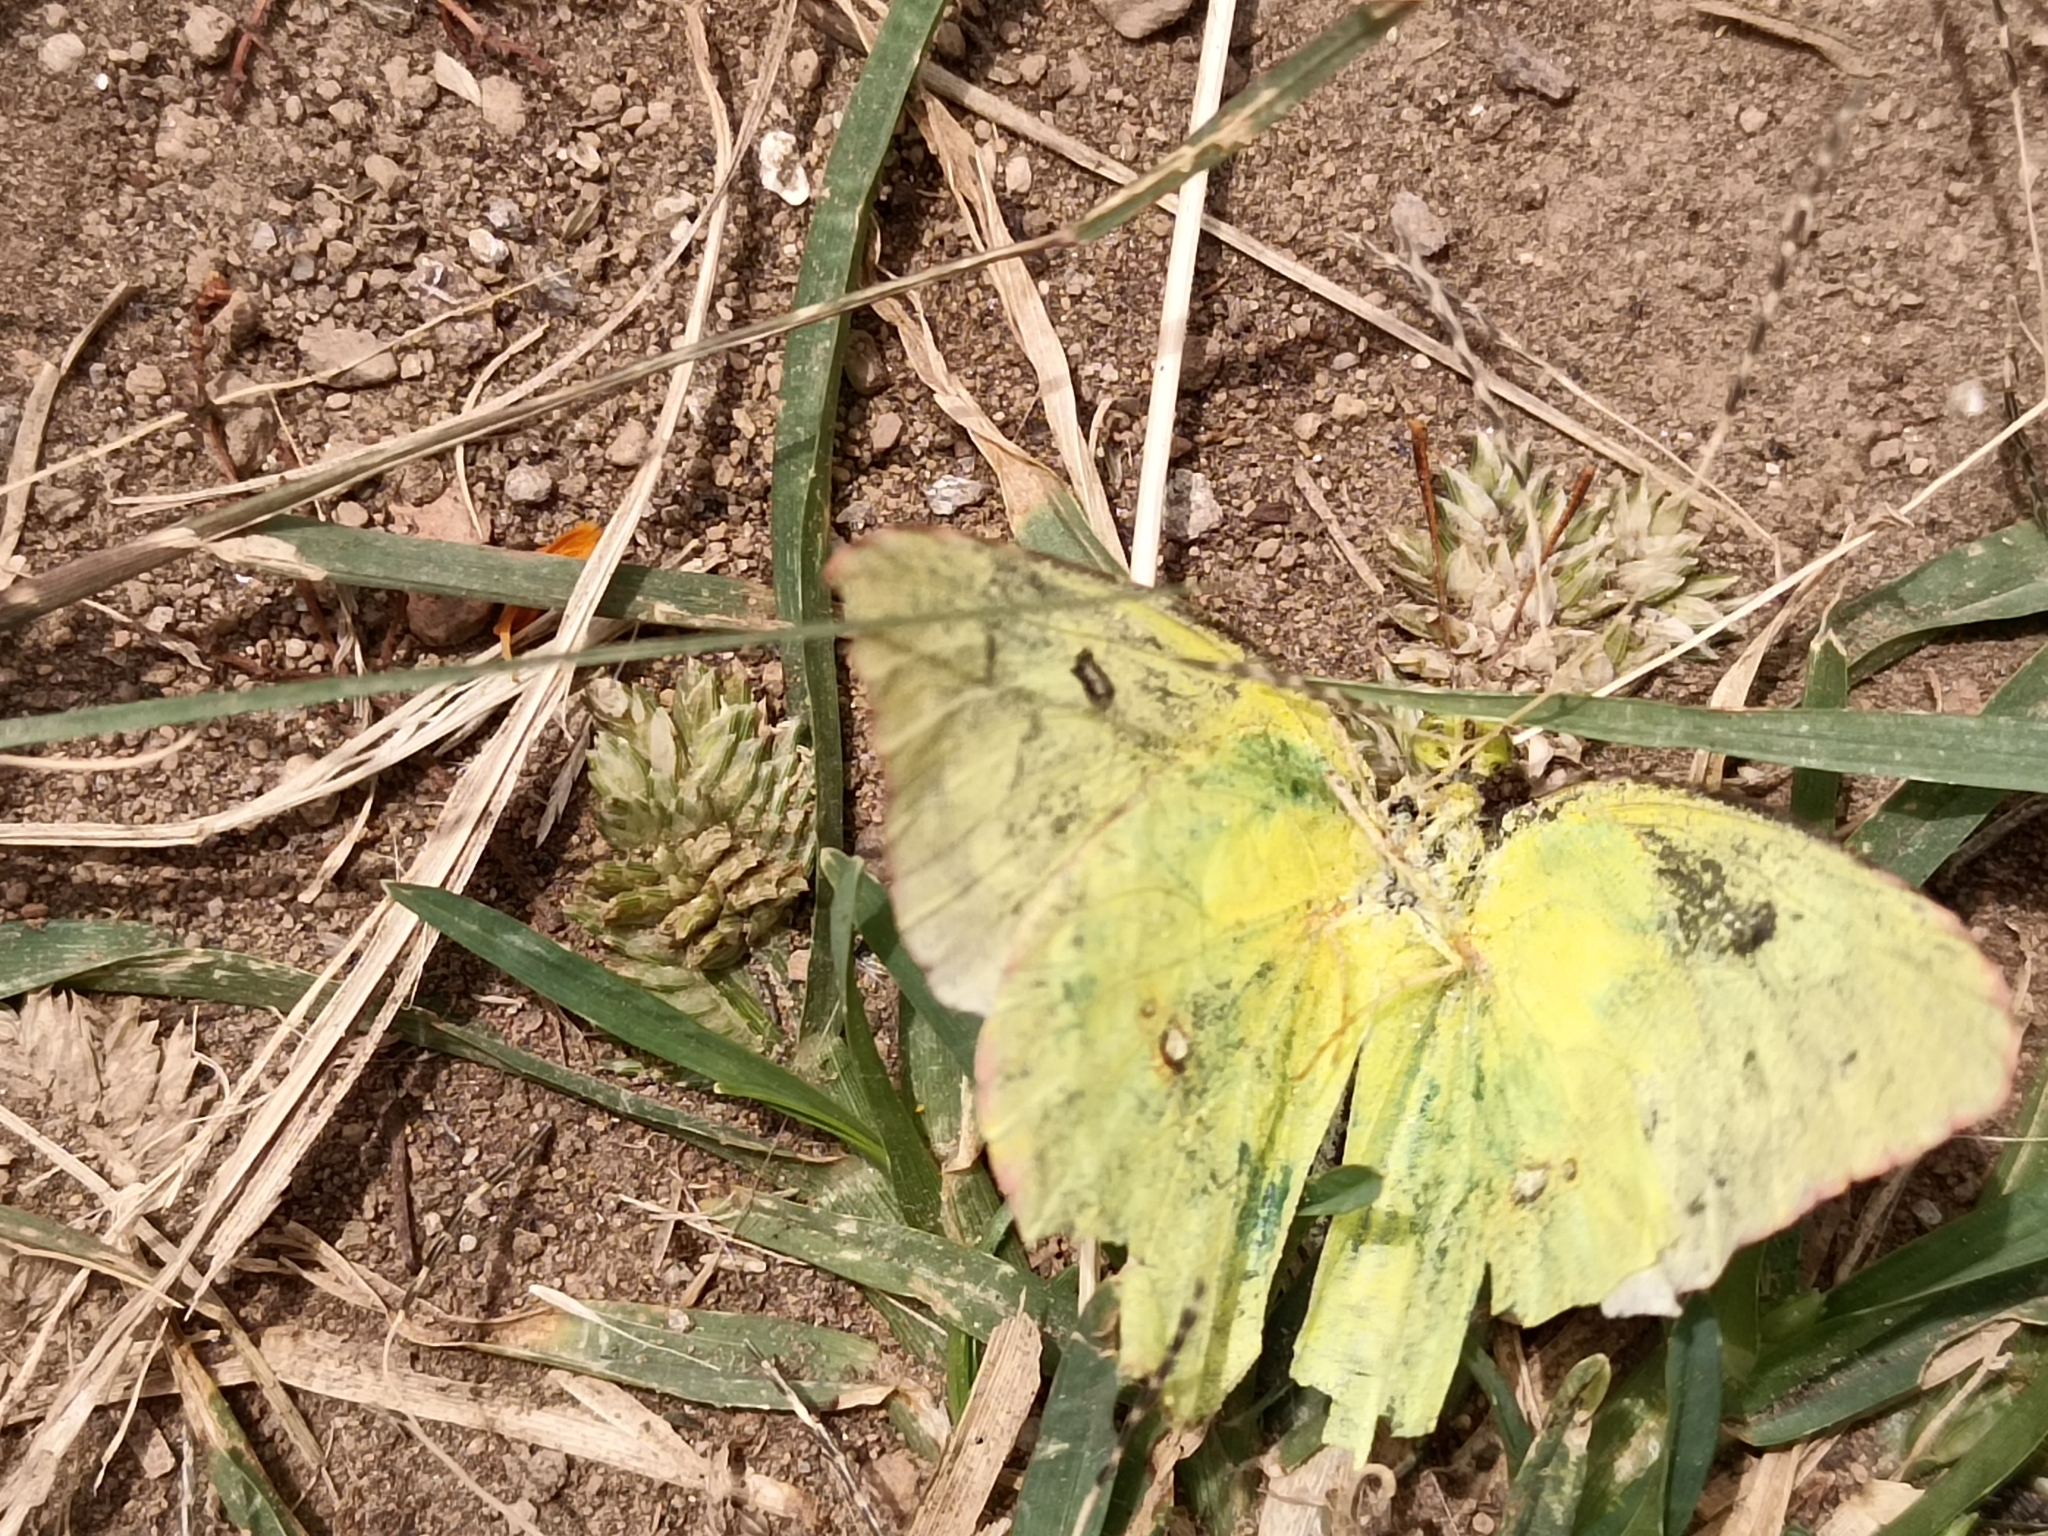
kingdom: Animalia
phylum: Arthropoda
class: Insecta
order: Lepidoptera
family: Pieridae
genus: Zerene
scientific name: Zerene cesonia
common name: Southern dogface
